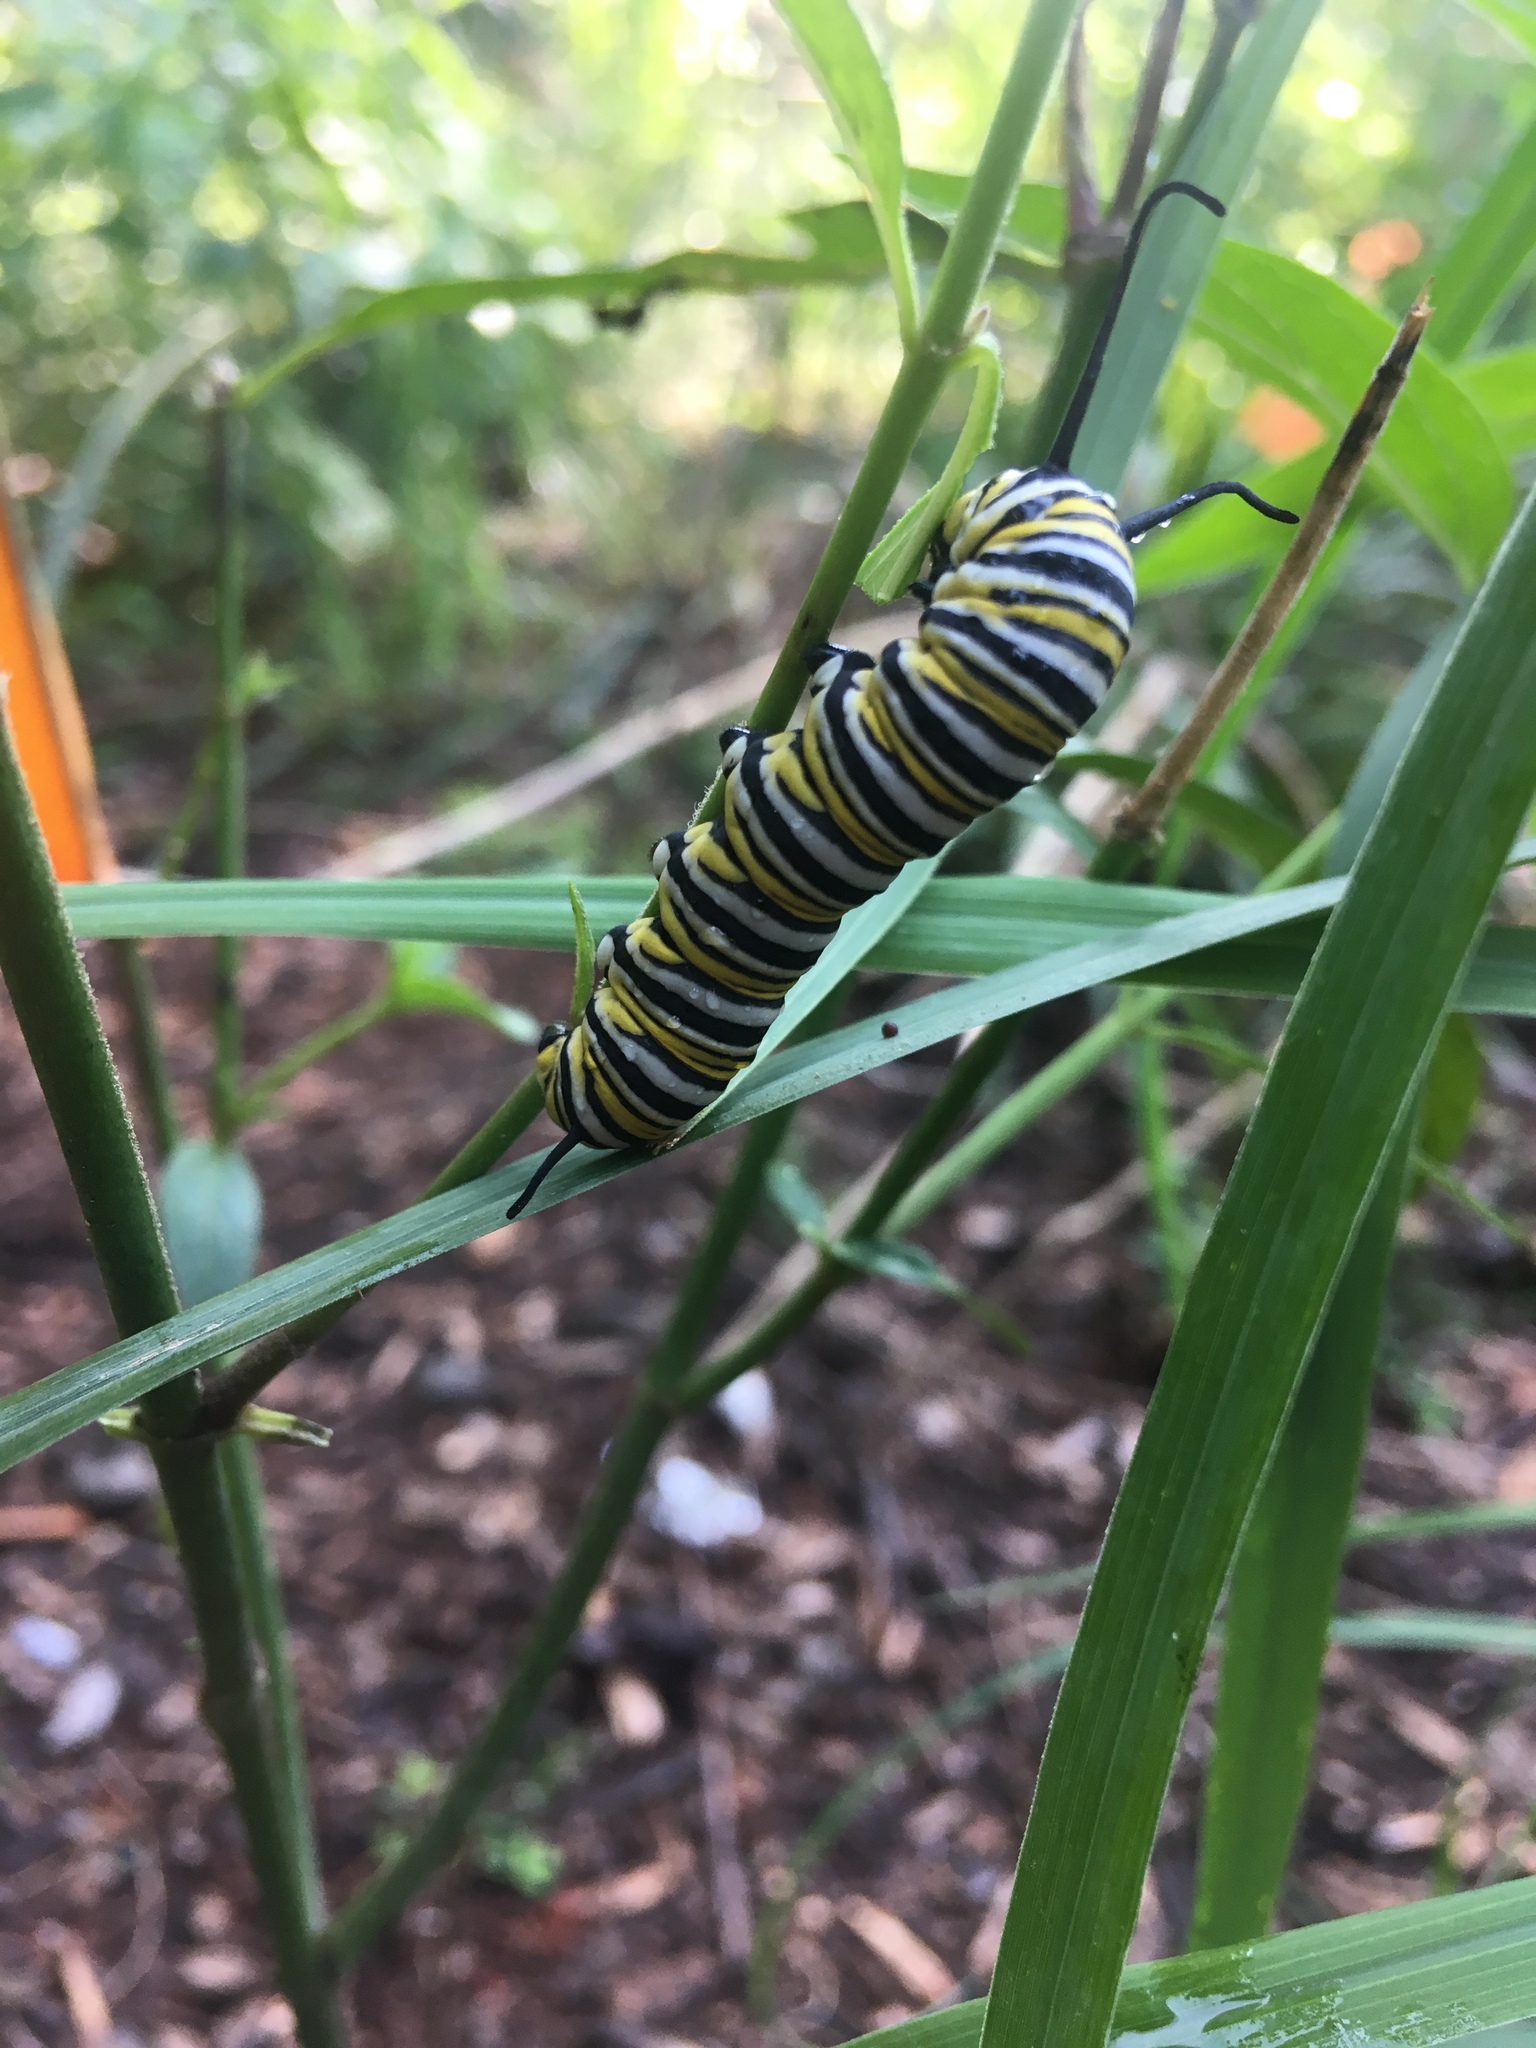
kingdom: Animalia
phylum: Arthropoda
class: Insecta
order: Lepidoptera
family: Nymphalidae
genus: Danaus
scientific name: Danaus plexippus
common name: Monarch
